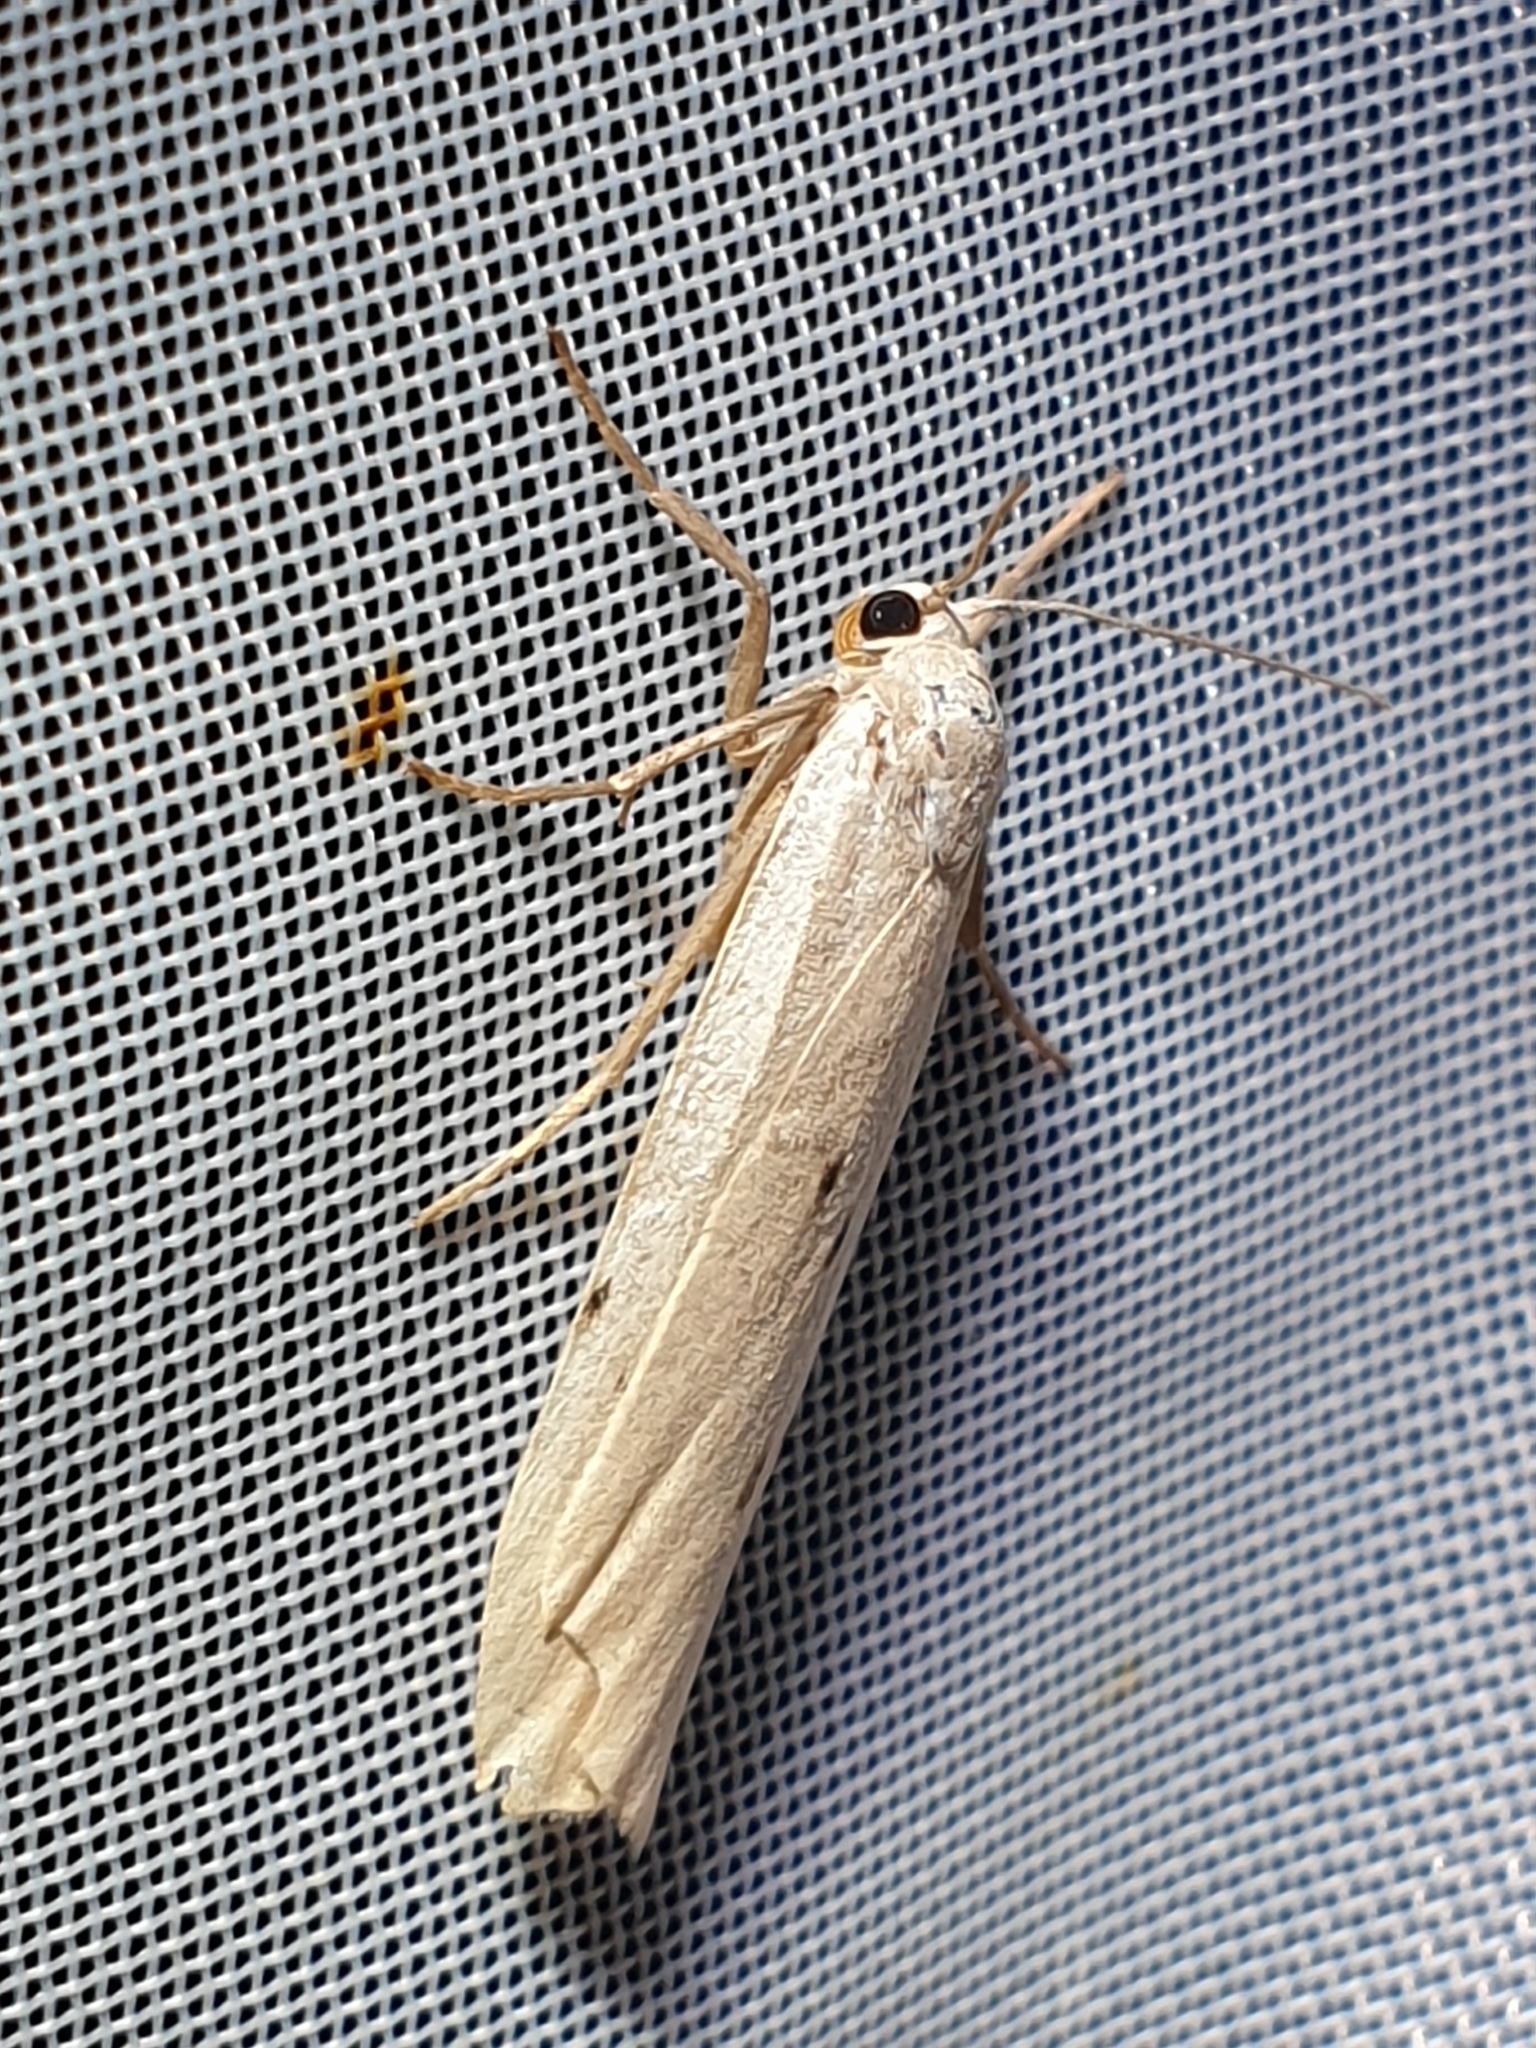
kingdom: Animalia
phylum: Arthropoda
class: Insecta
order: Lepidoptera
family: Erebidae
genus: Pelosia
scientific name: Pelosia muscerda
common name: Dotted footman
